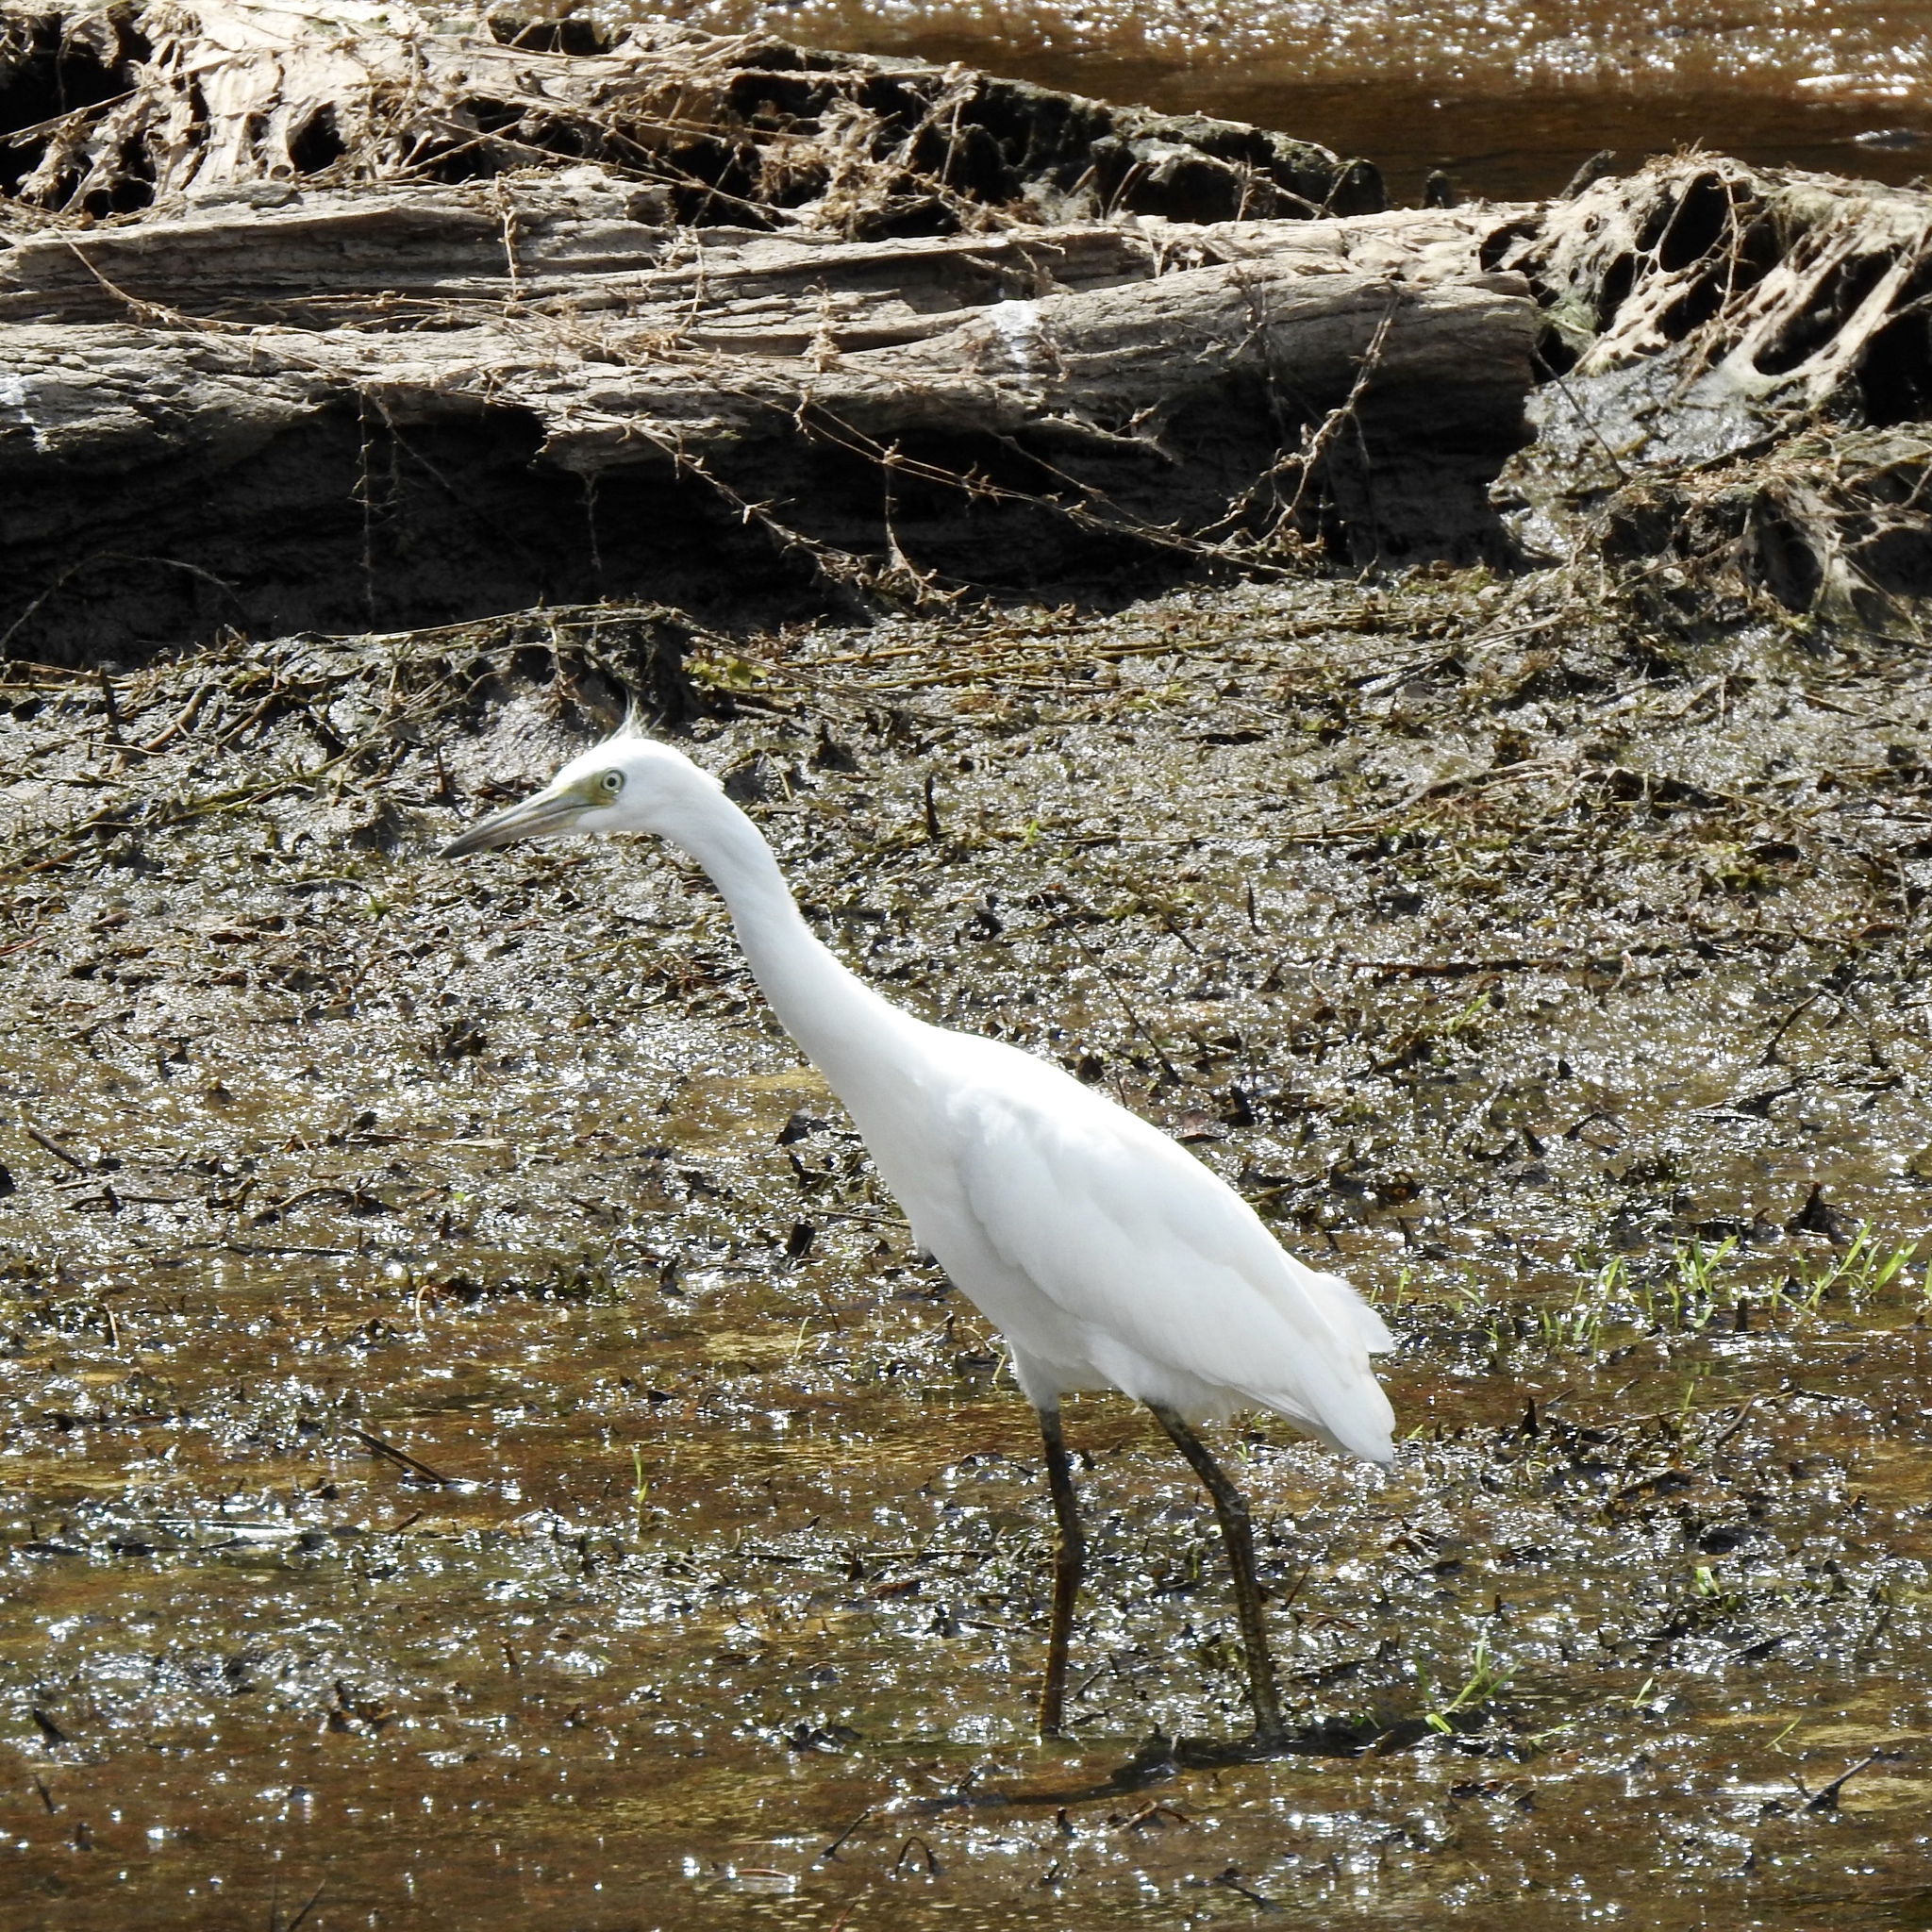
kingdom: Animalia
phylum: Chordata
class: Aves
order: Pelecaniformes
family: Ardeidae
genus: Egretta
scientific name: Egretta caerulea
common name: Little blue heron
